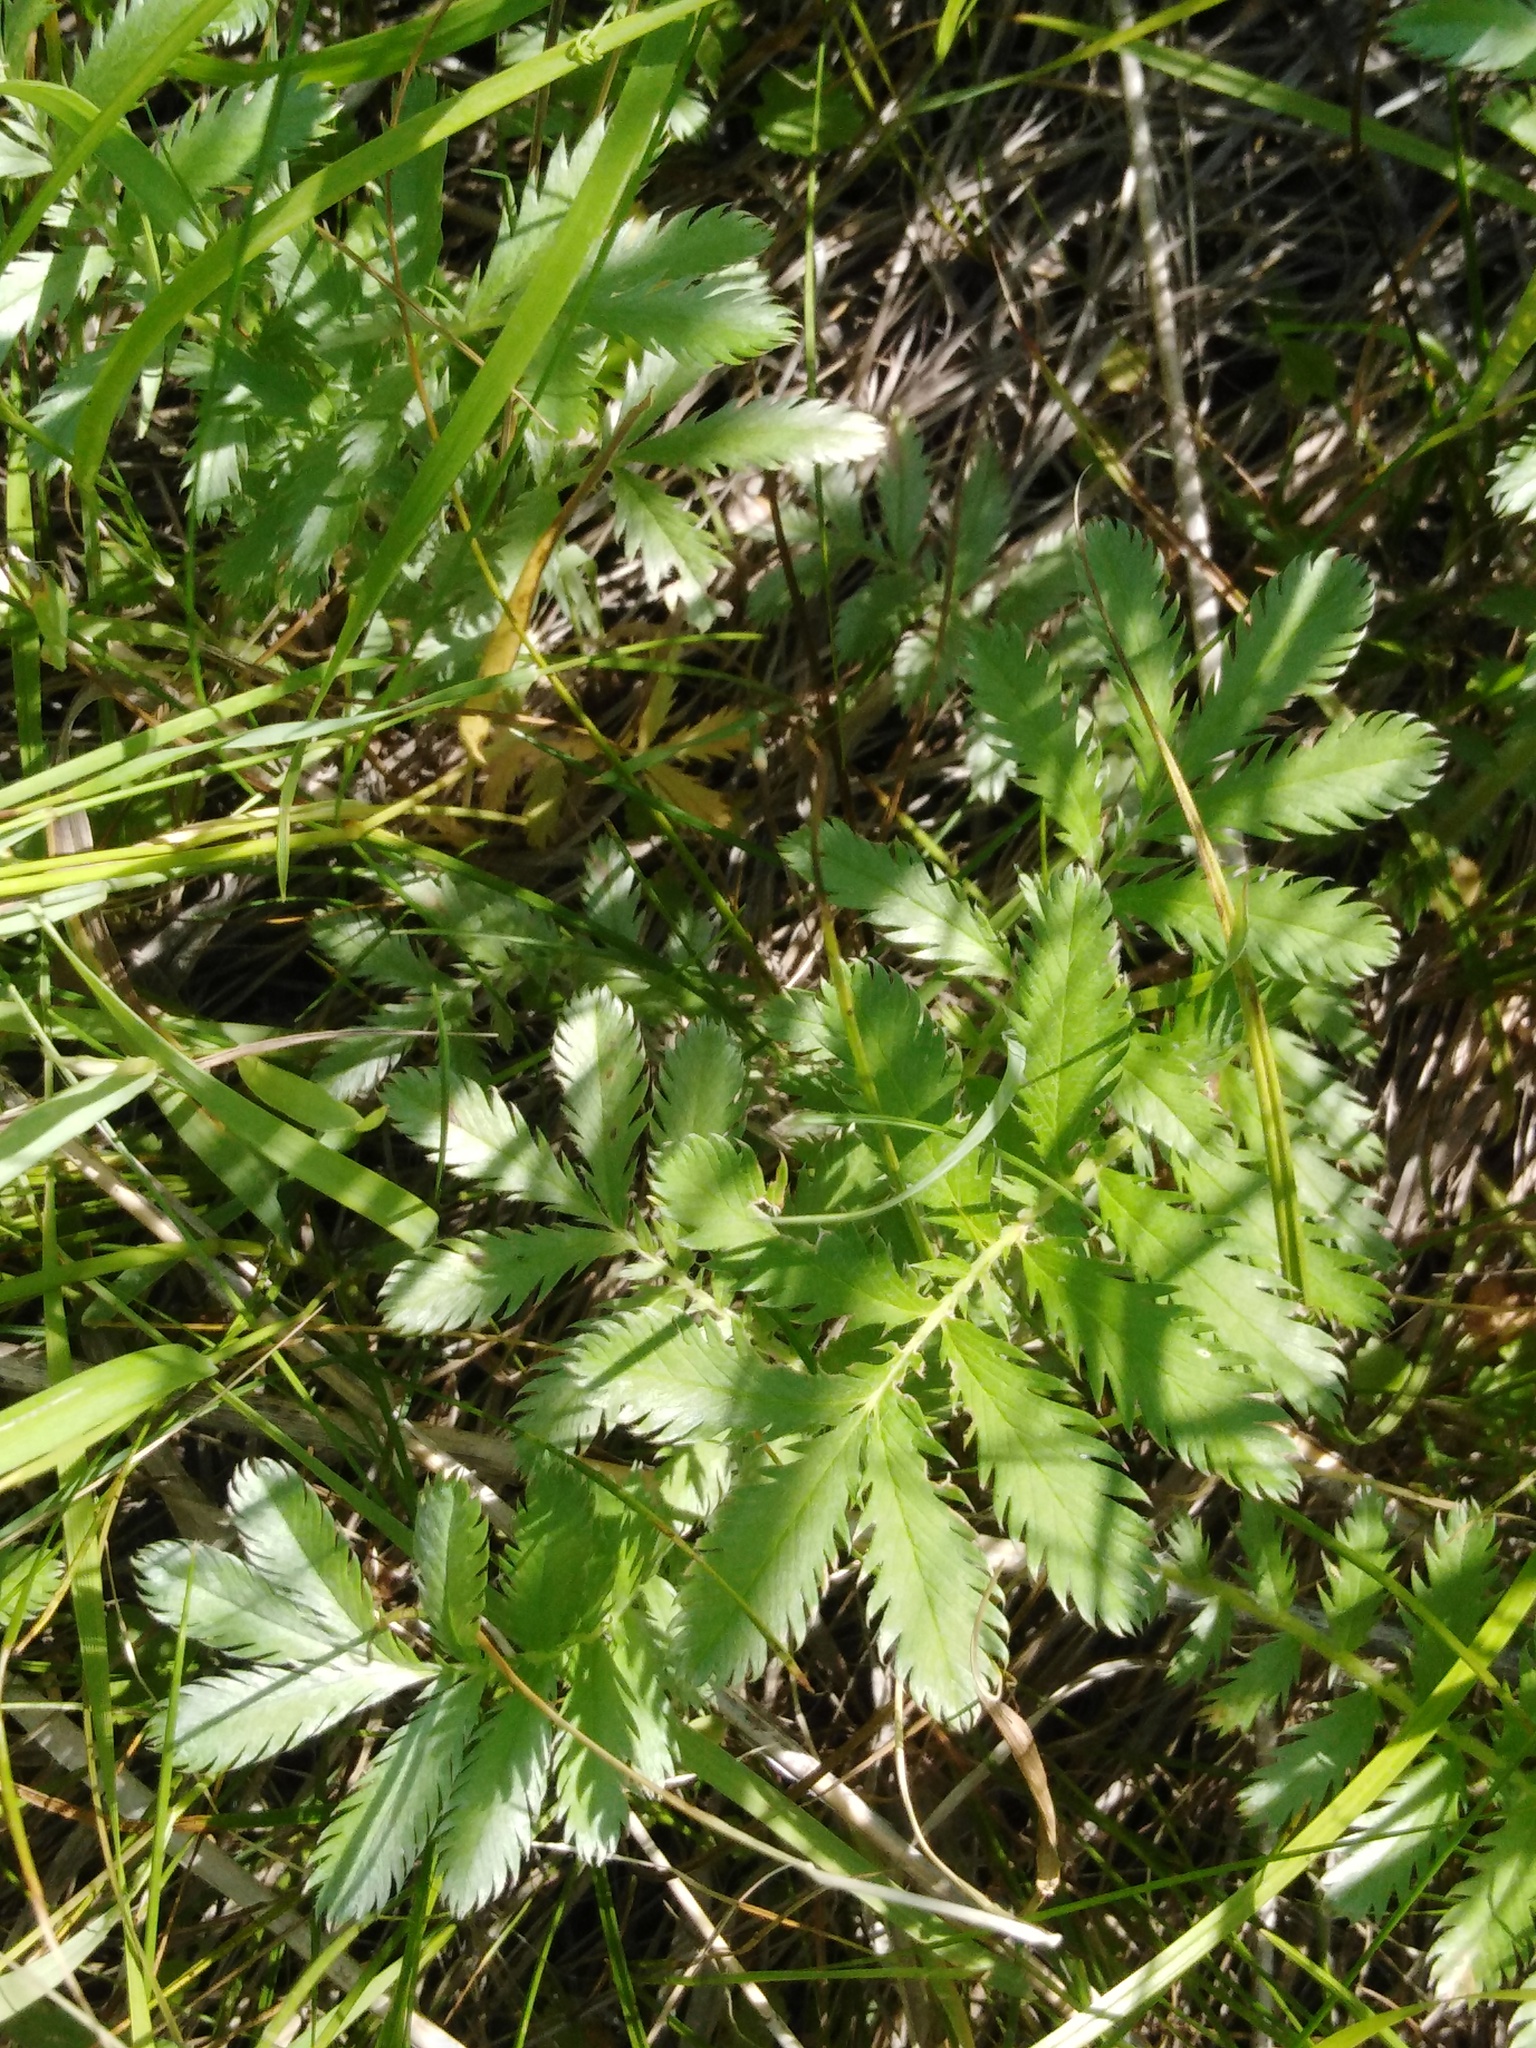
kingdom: Plantae
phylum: Tracheophyta
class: Magnoliopsida
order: Rosales
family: Rosaceae
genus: Argentina
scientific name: Argentina anserina
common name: Common silverweed
